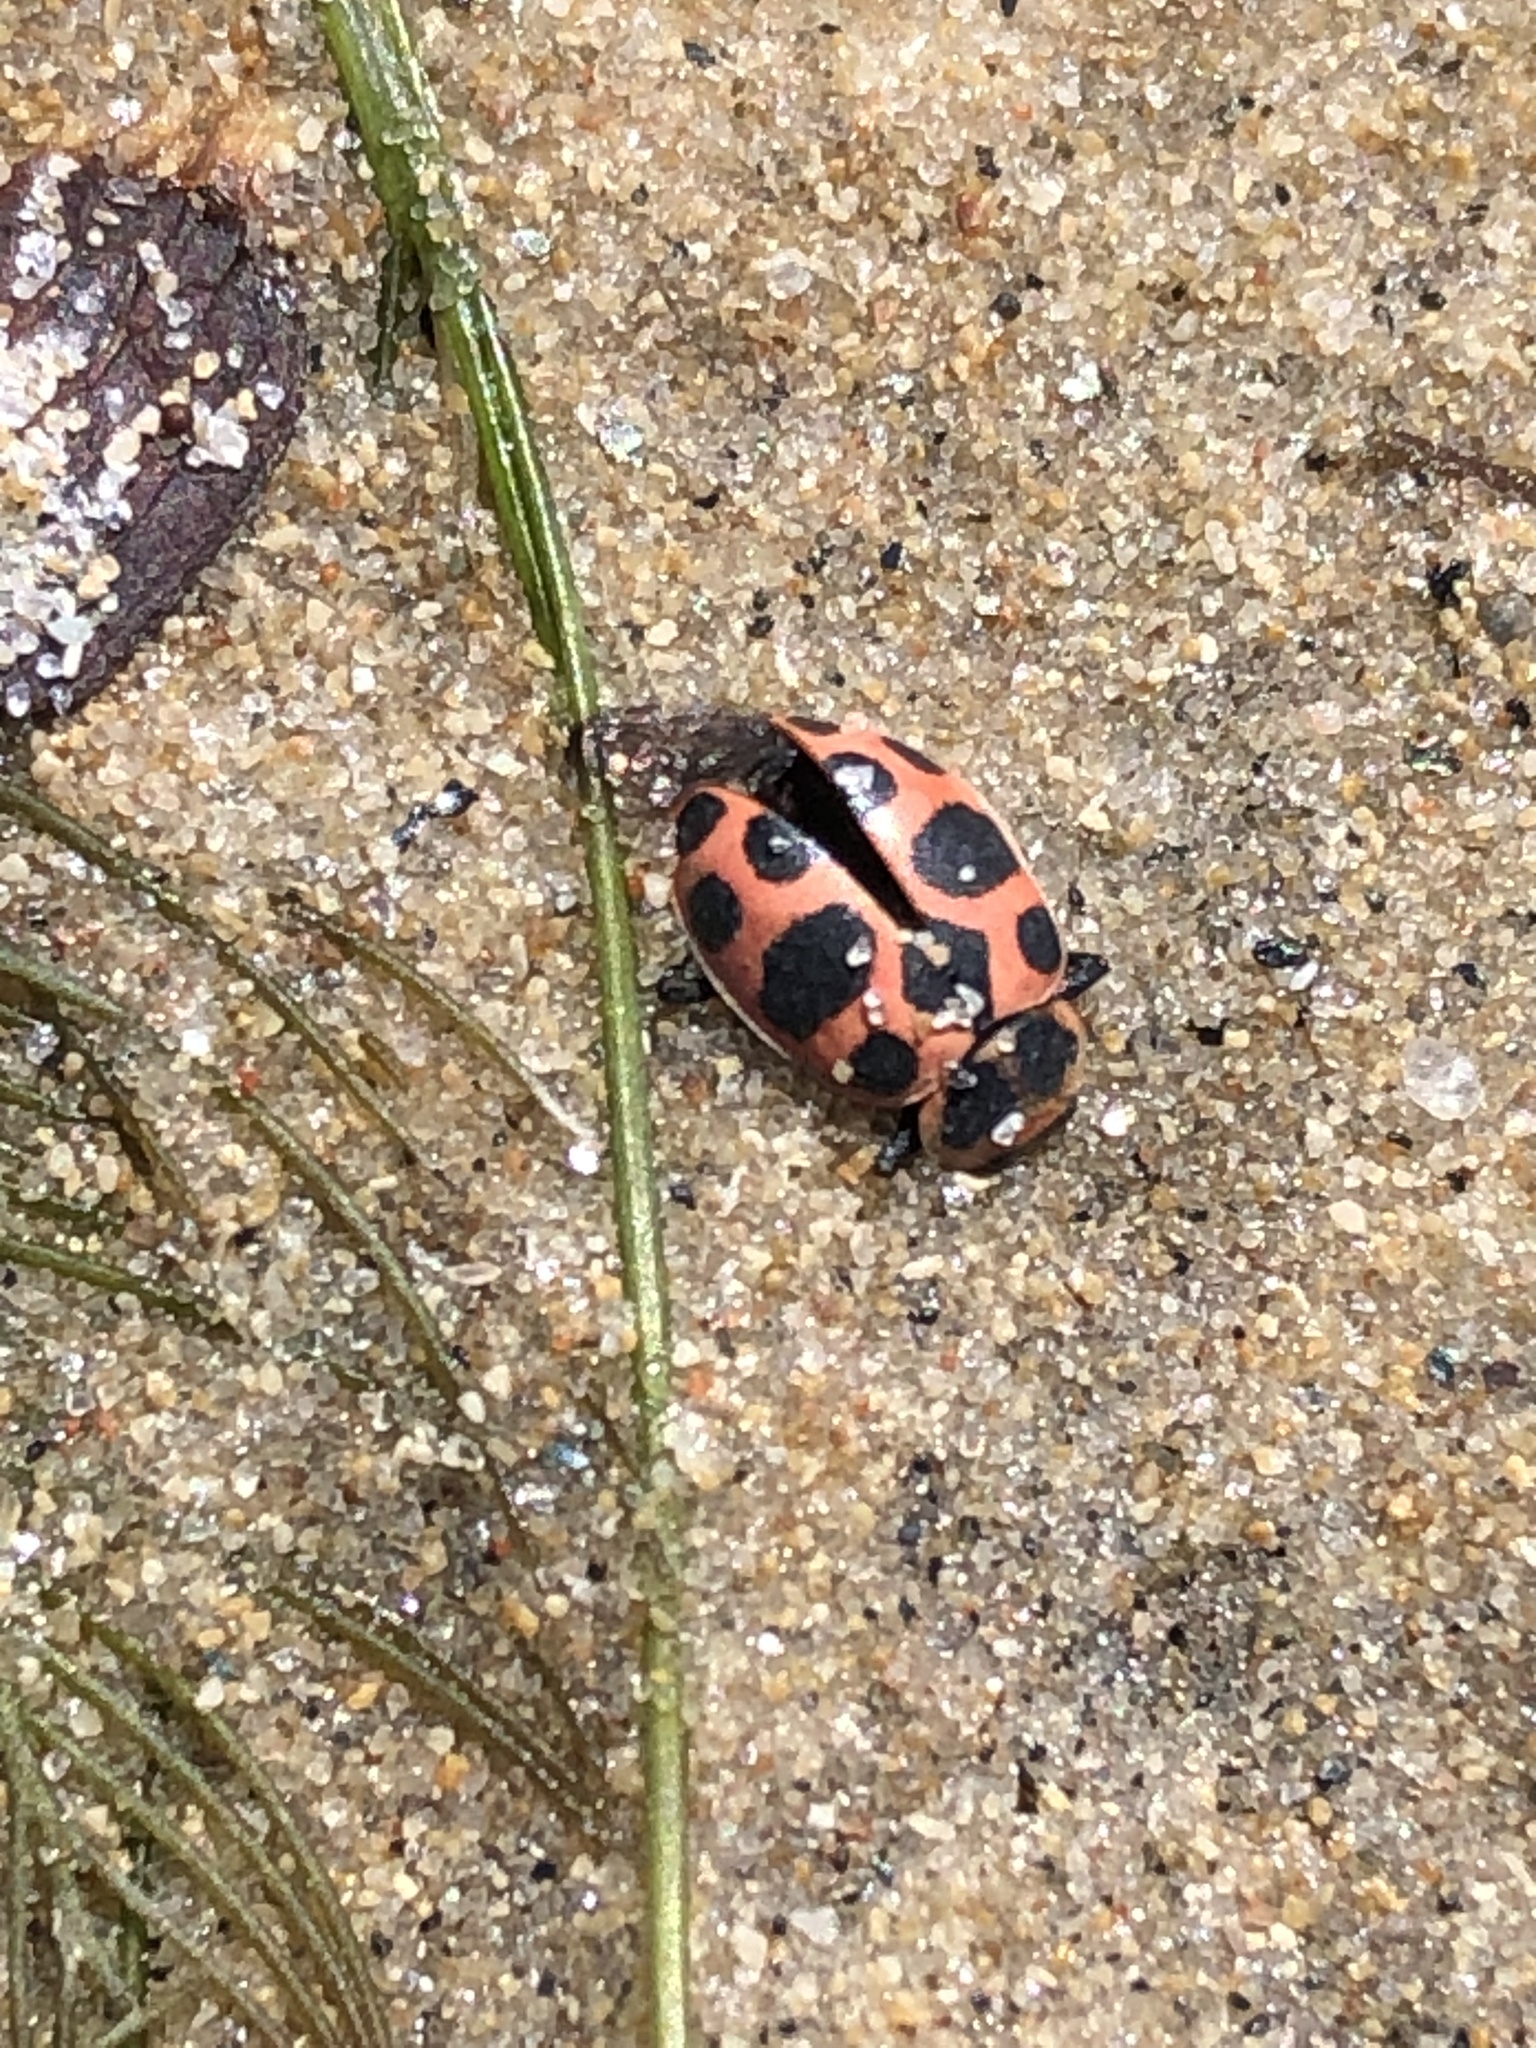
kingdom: Animalia
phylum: Arthropoda
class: Insecta
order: Coleoptera
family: Coccinellidae
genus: Coleomegilla
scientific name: Coleomegilla maculata
